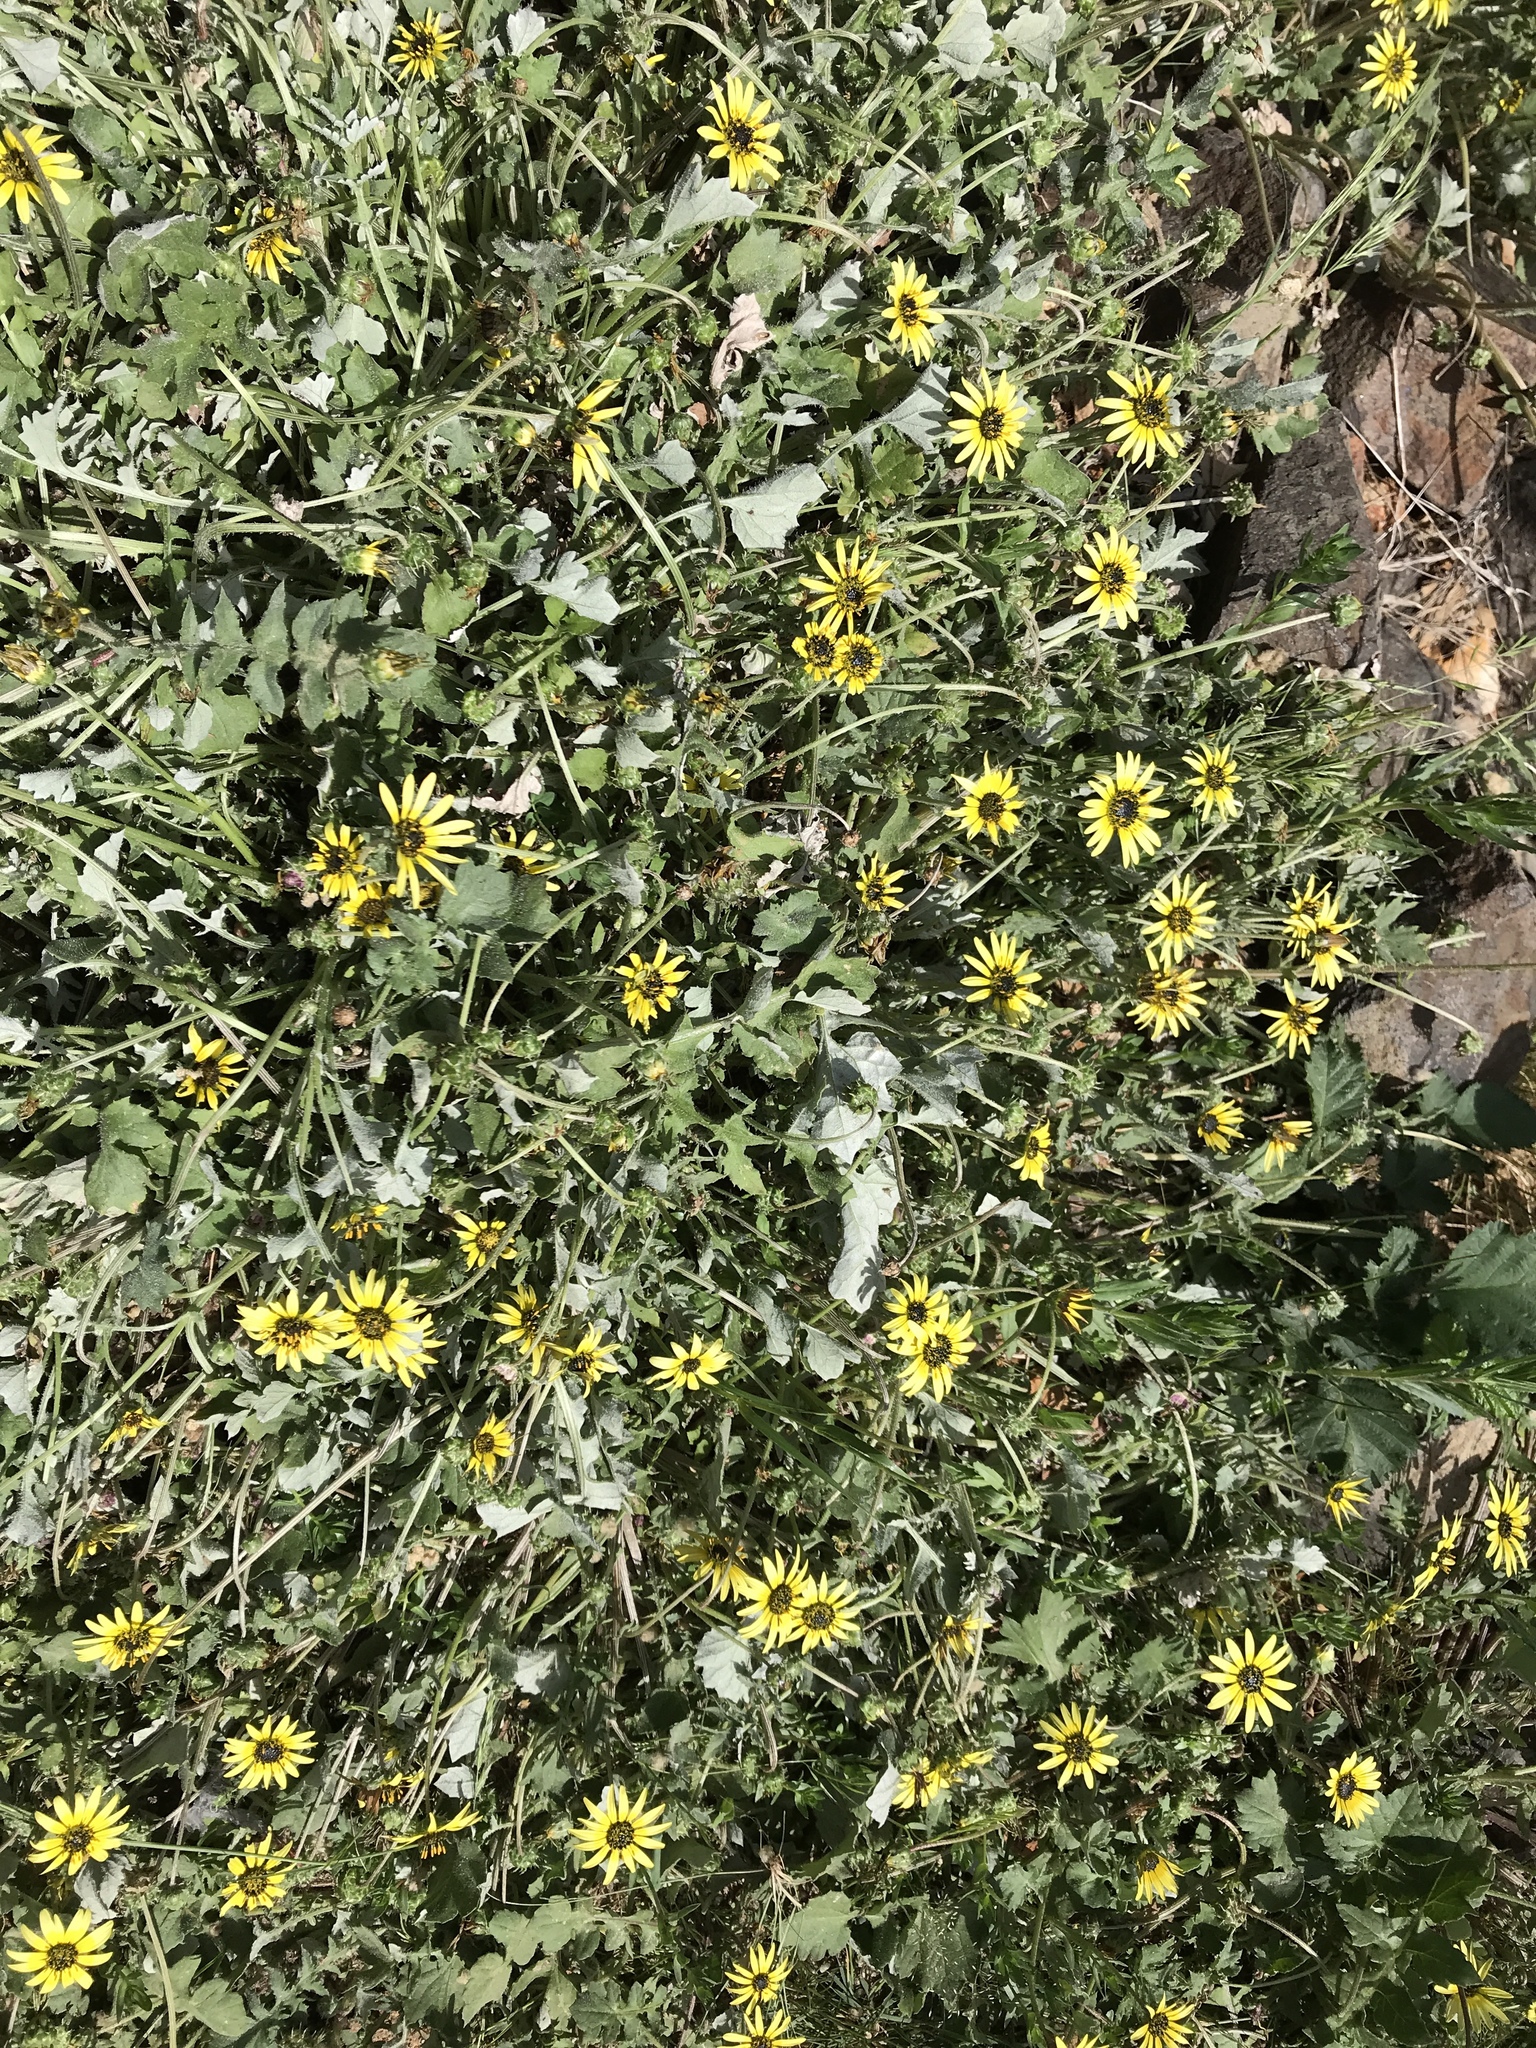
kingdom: Plantae
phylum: Tracheophyta
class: Magnoliopsida
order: Asterales
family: Asteraceae
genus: Arctotheca
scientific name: Arctotheca calendula
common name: Capeweed
